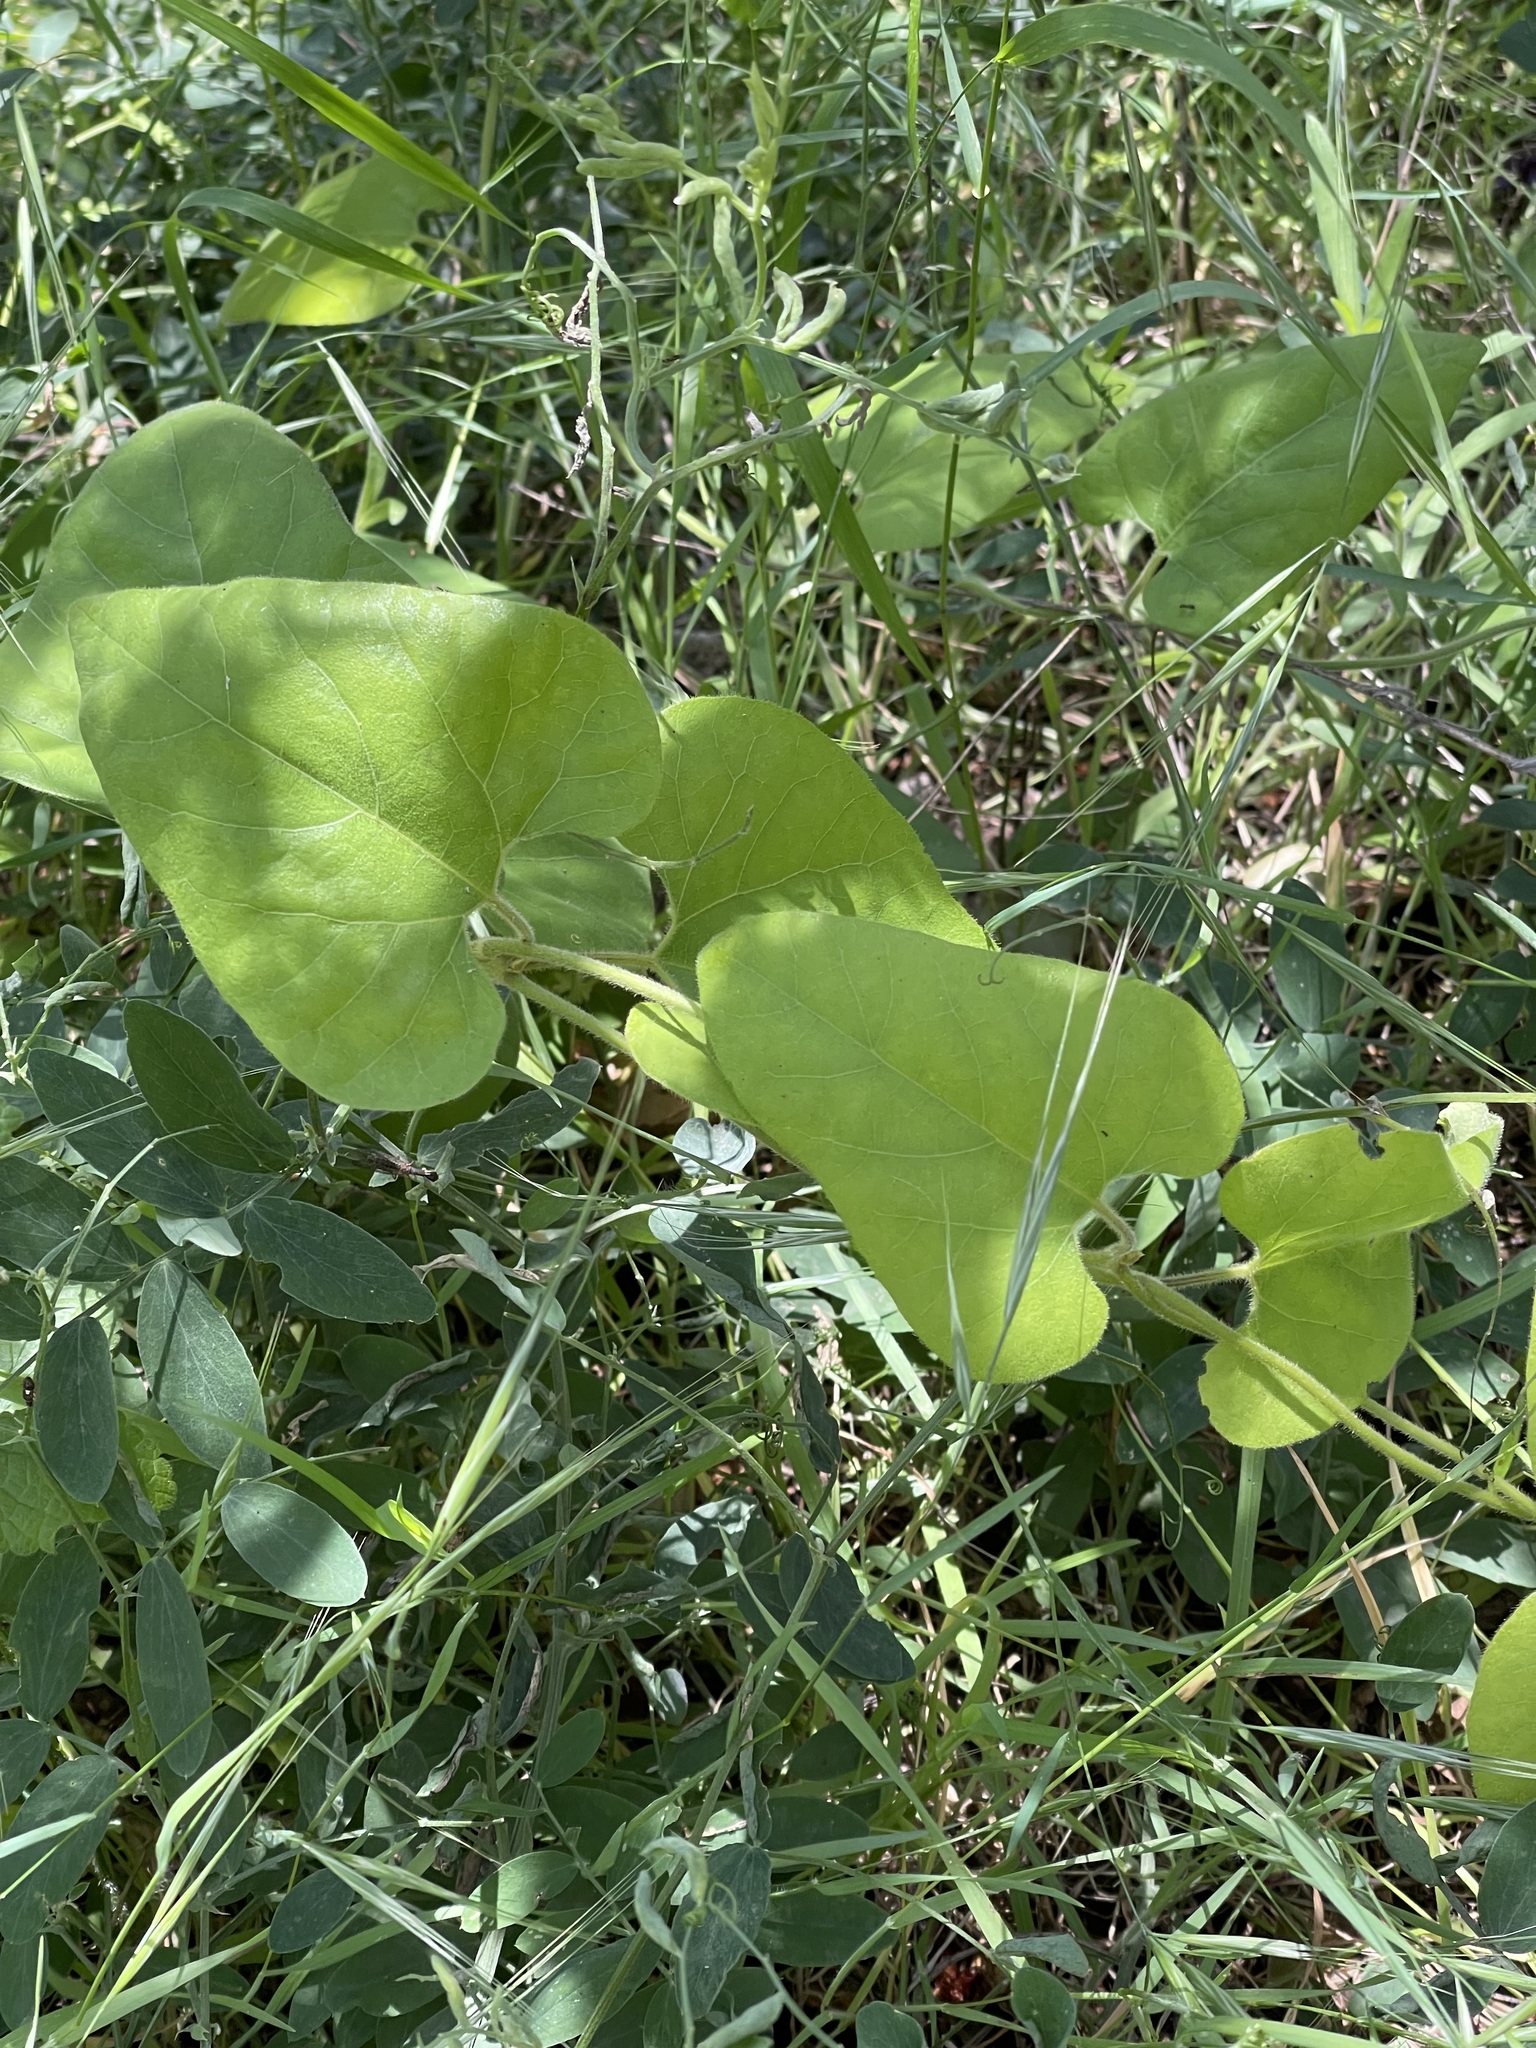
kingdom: Plantae
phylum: Tracheophyta
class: Magnoliopsida
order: Piperales
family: Aristolochiaceae
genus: Isotrema
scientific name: Isotrema californicum
